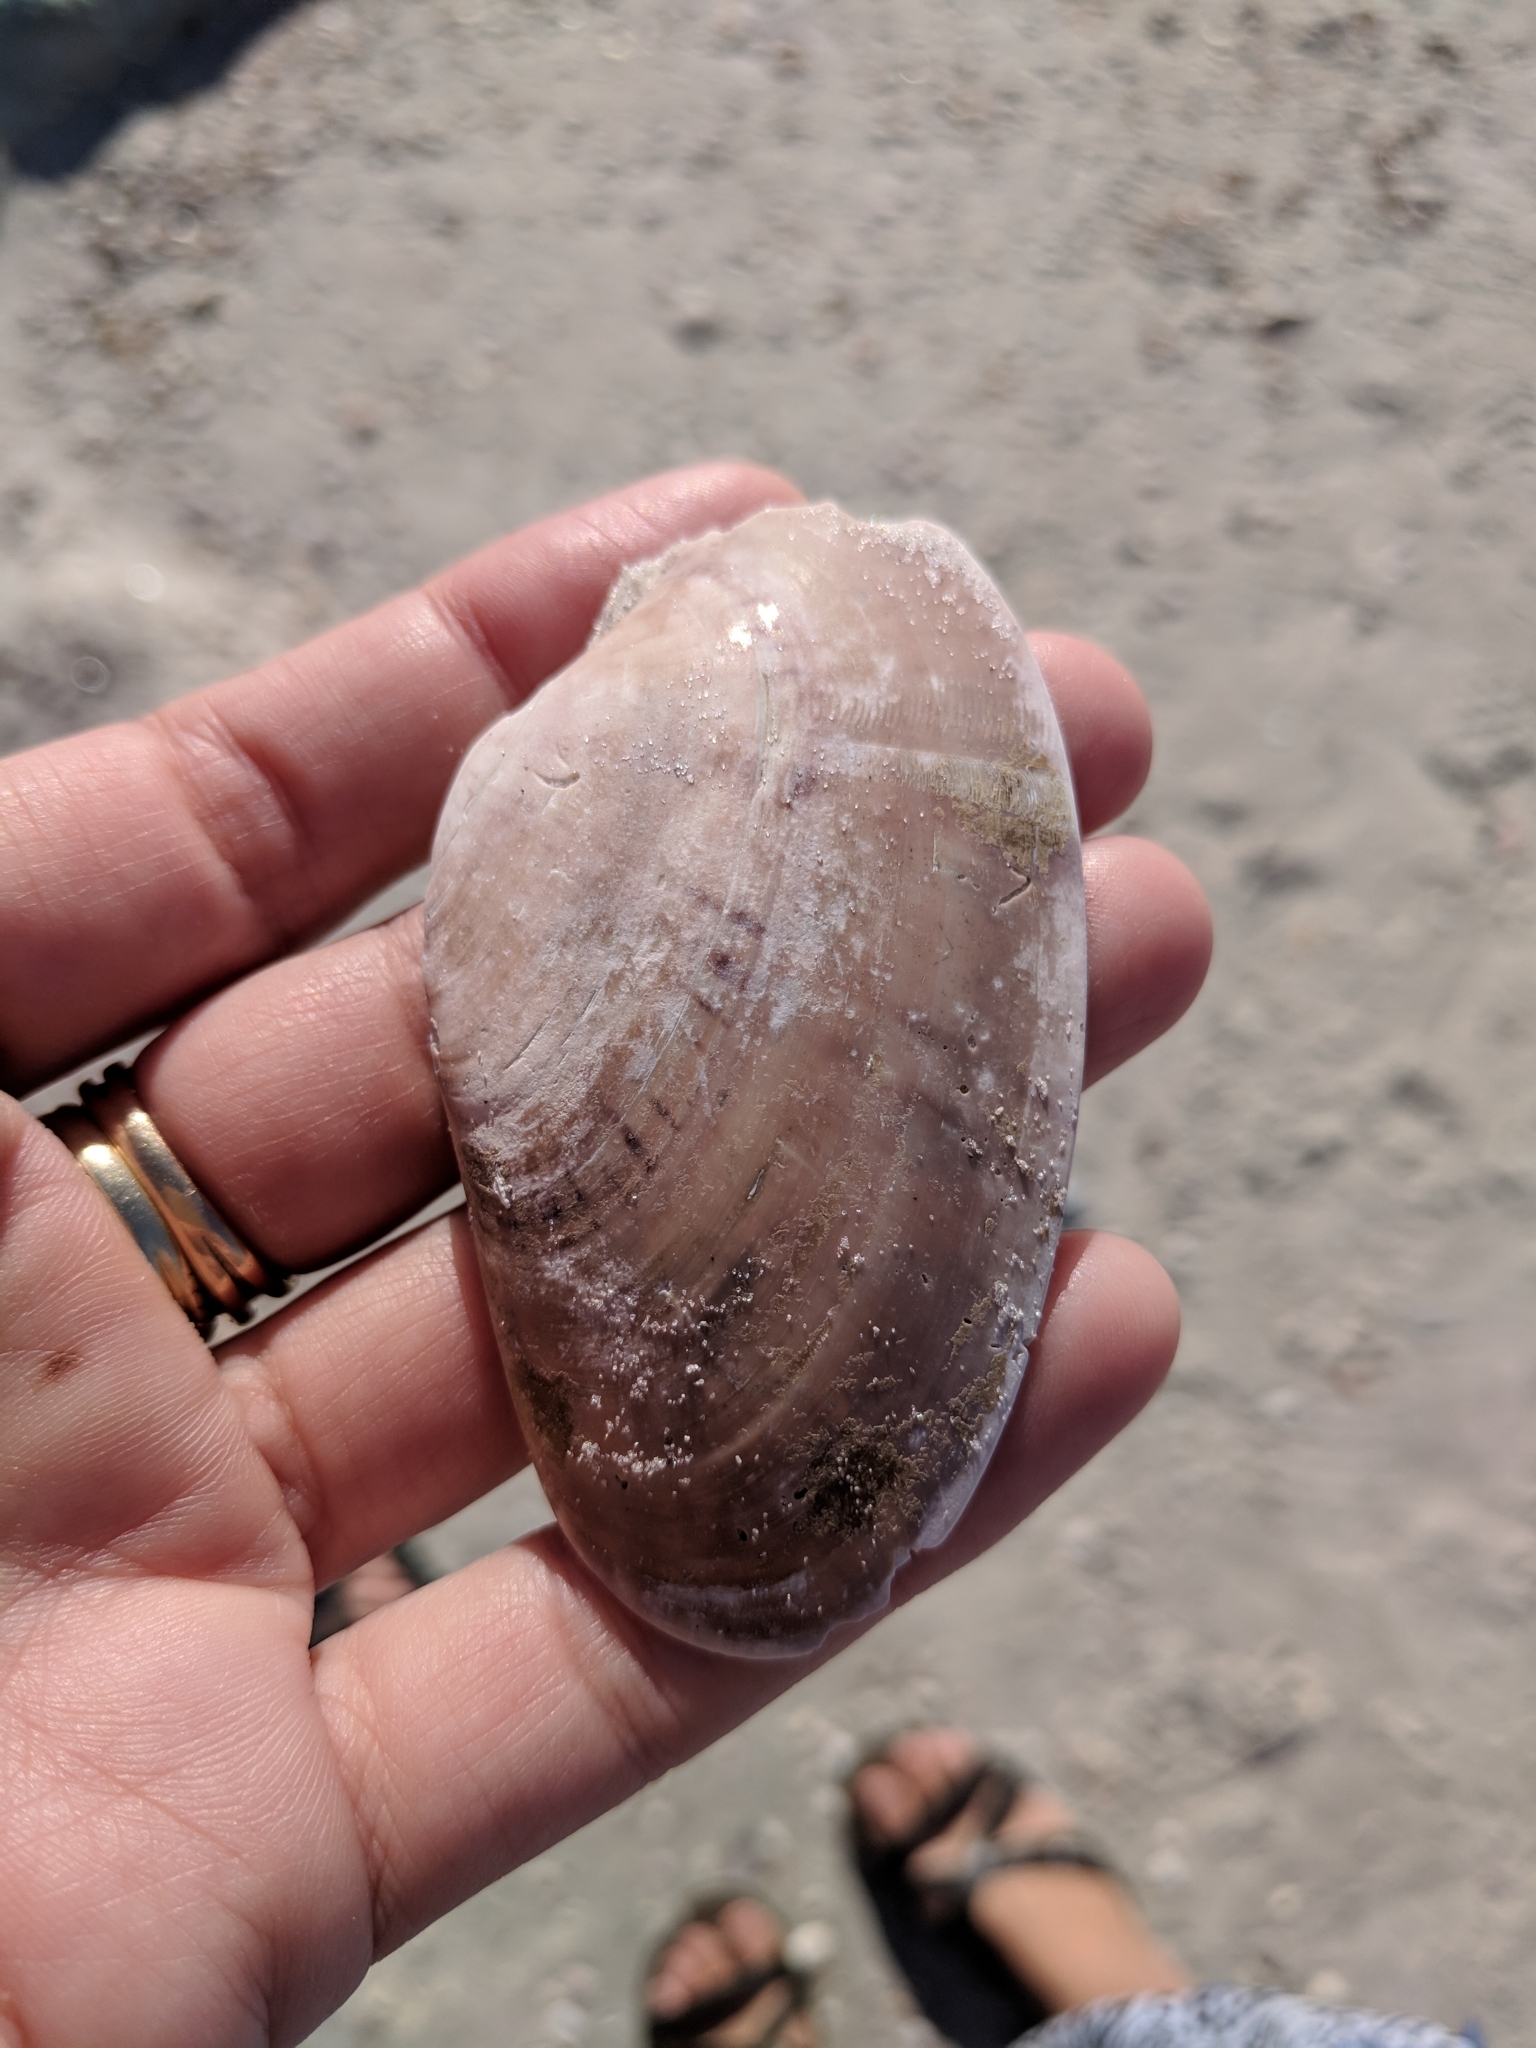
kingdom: Animalia
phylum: Mollusca
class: Bivalvia
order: Venerida
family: Veneridae
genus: Macrocallista
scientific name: Macrocallista nimbosa
